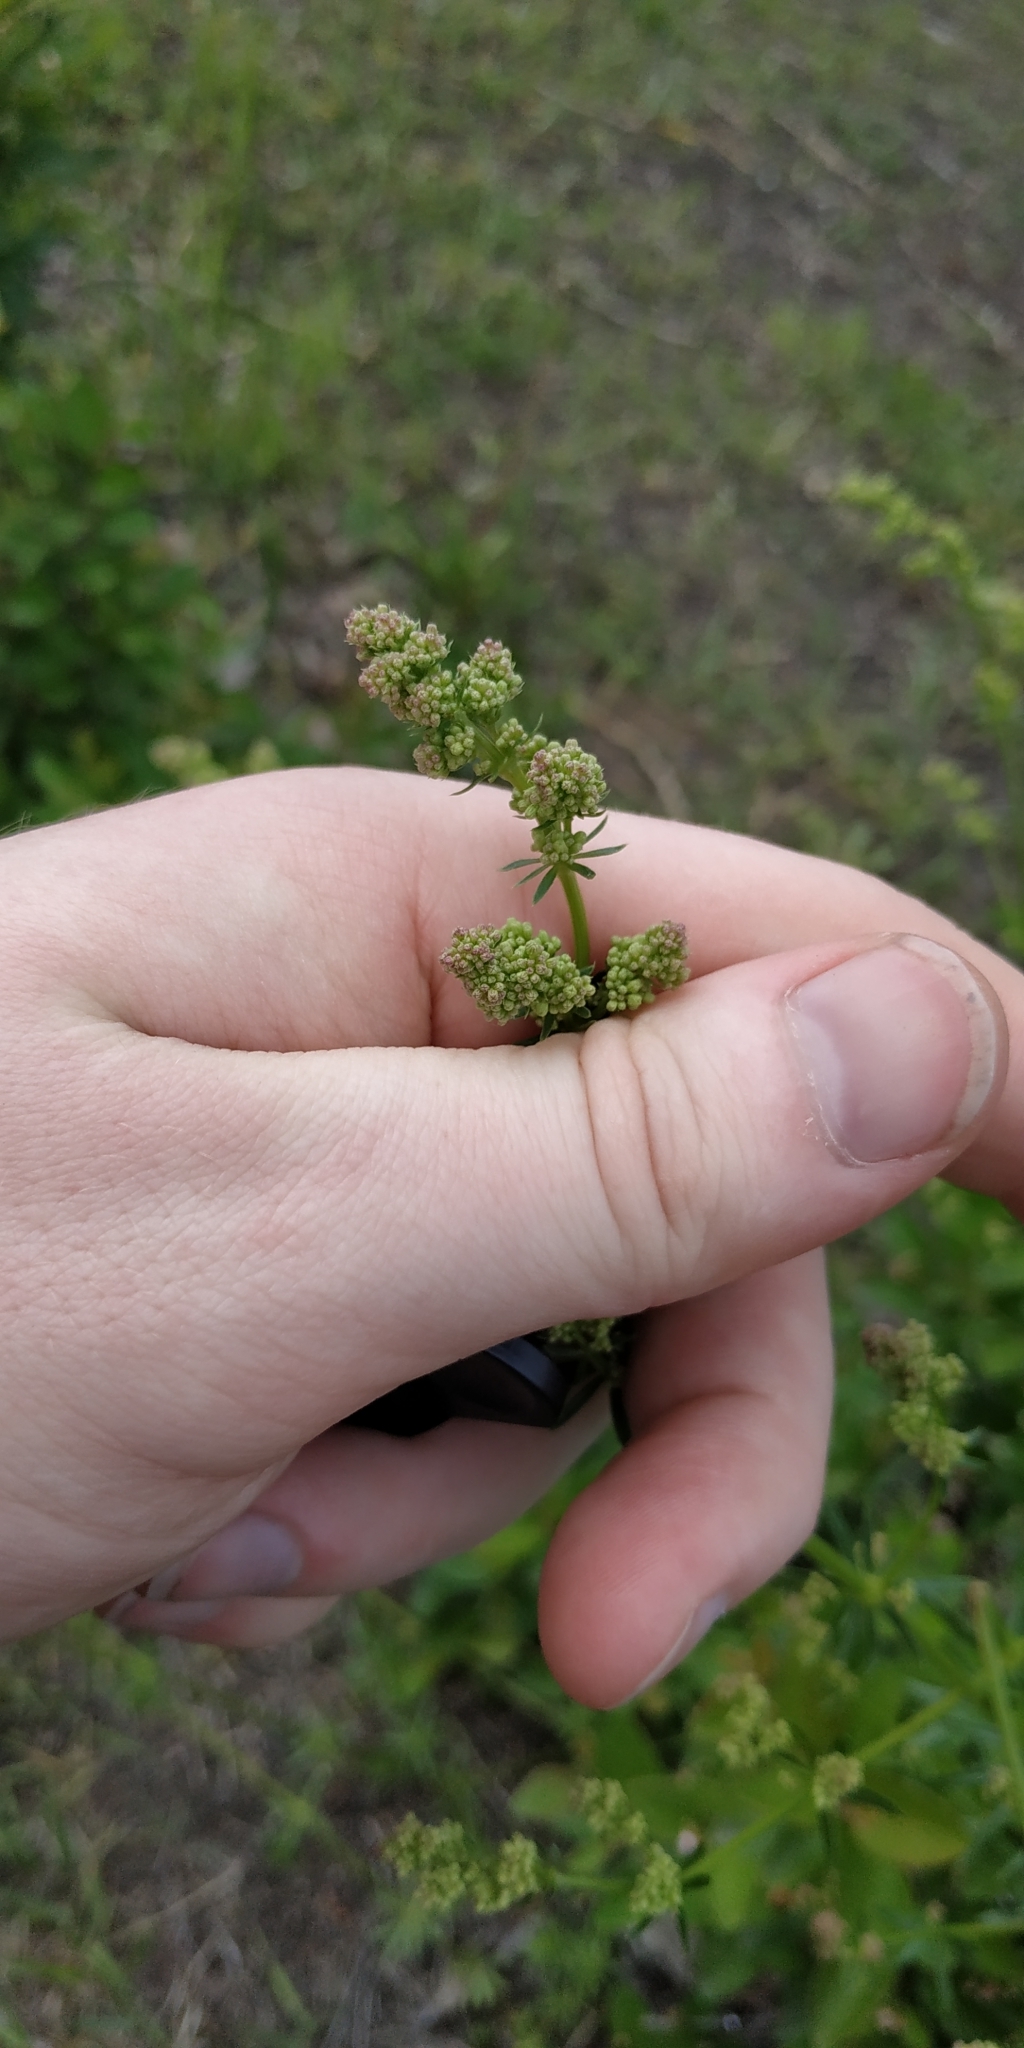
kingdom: Plantae
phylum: Tracheophyta
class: Magnoliopsida
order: Gentianales
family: Rubiaceae
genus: Galium
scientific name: Galium mollugo
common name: Hedge bedstraw
